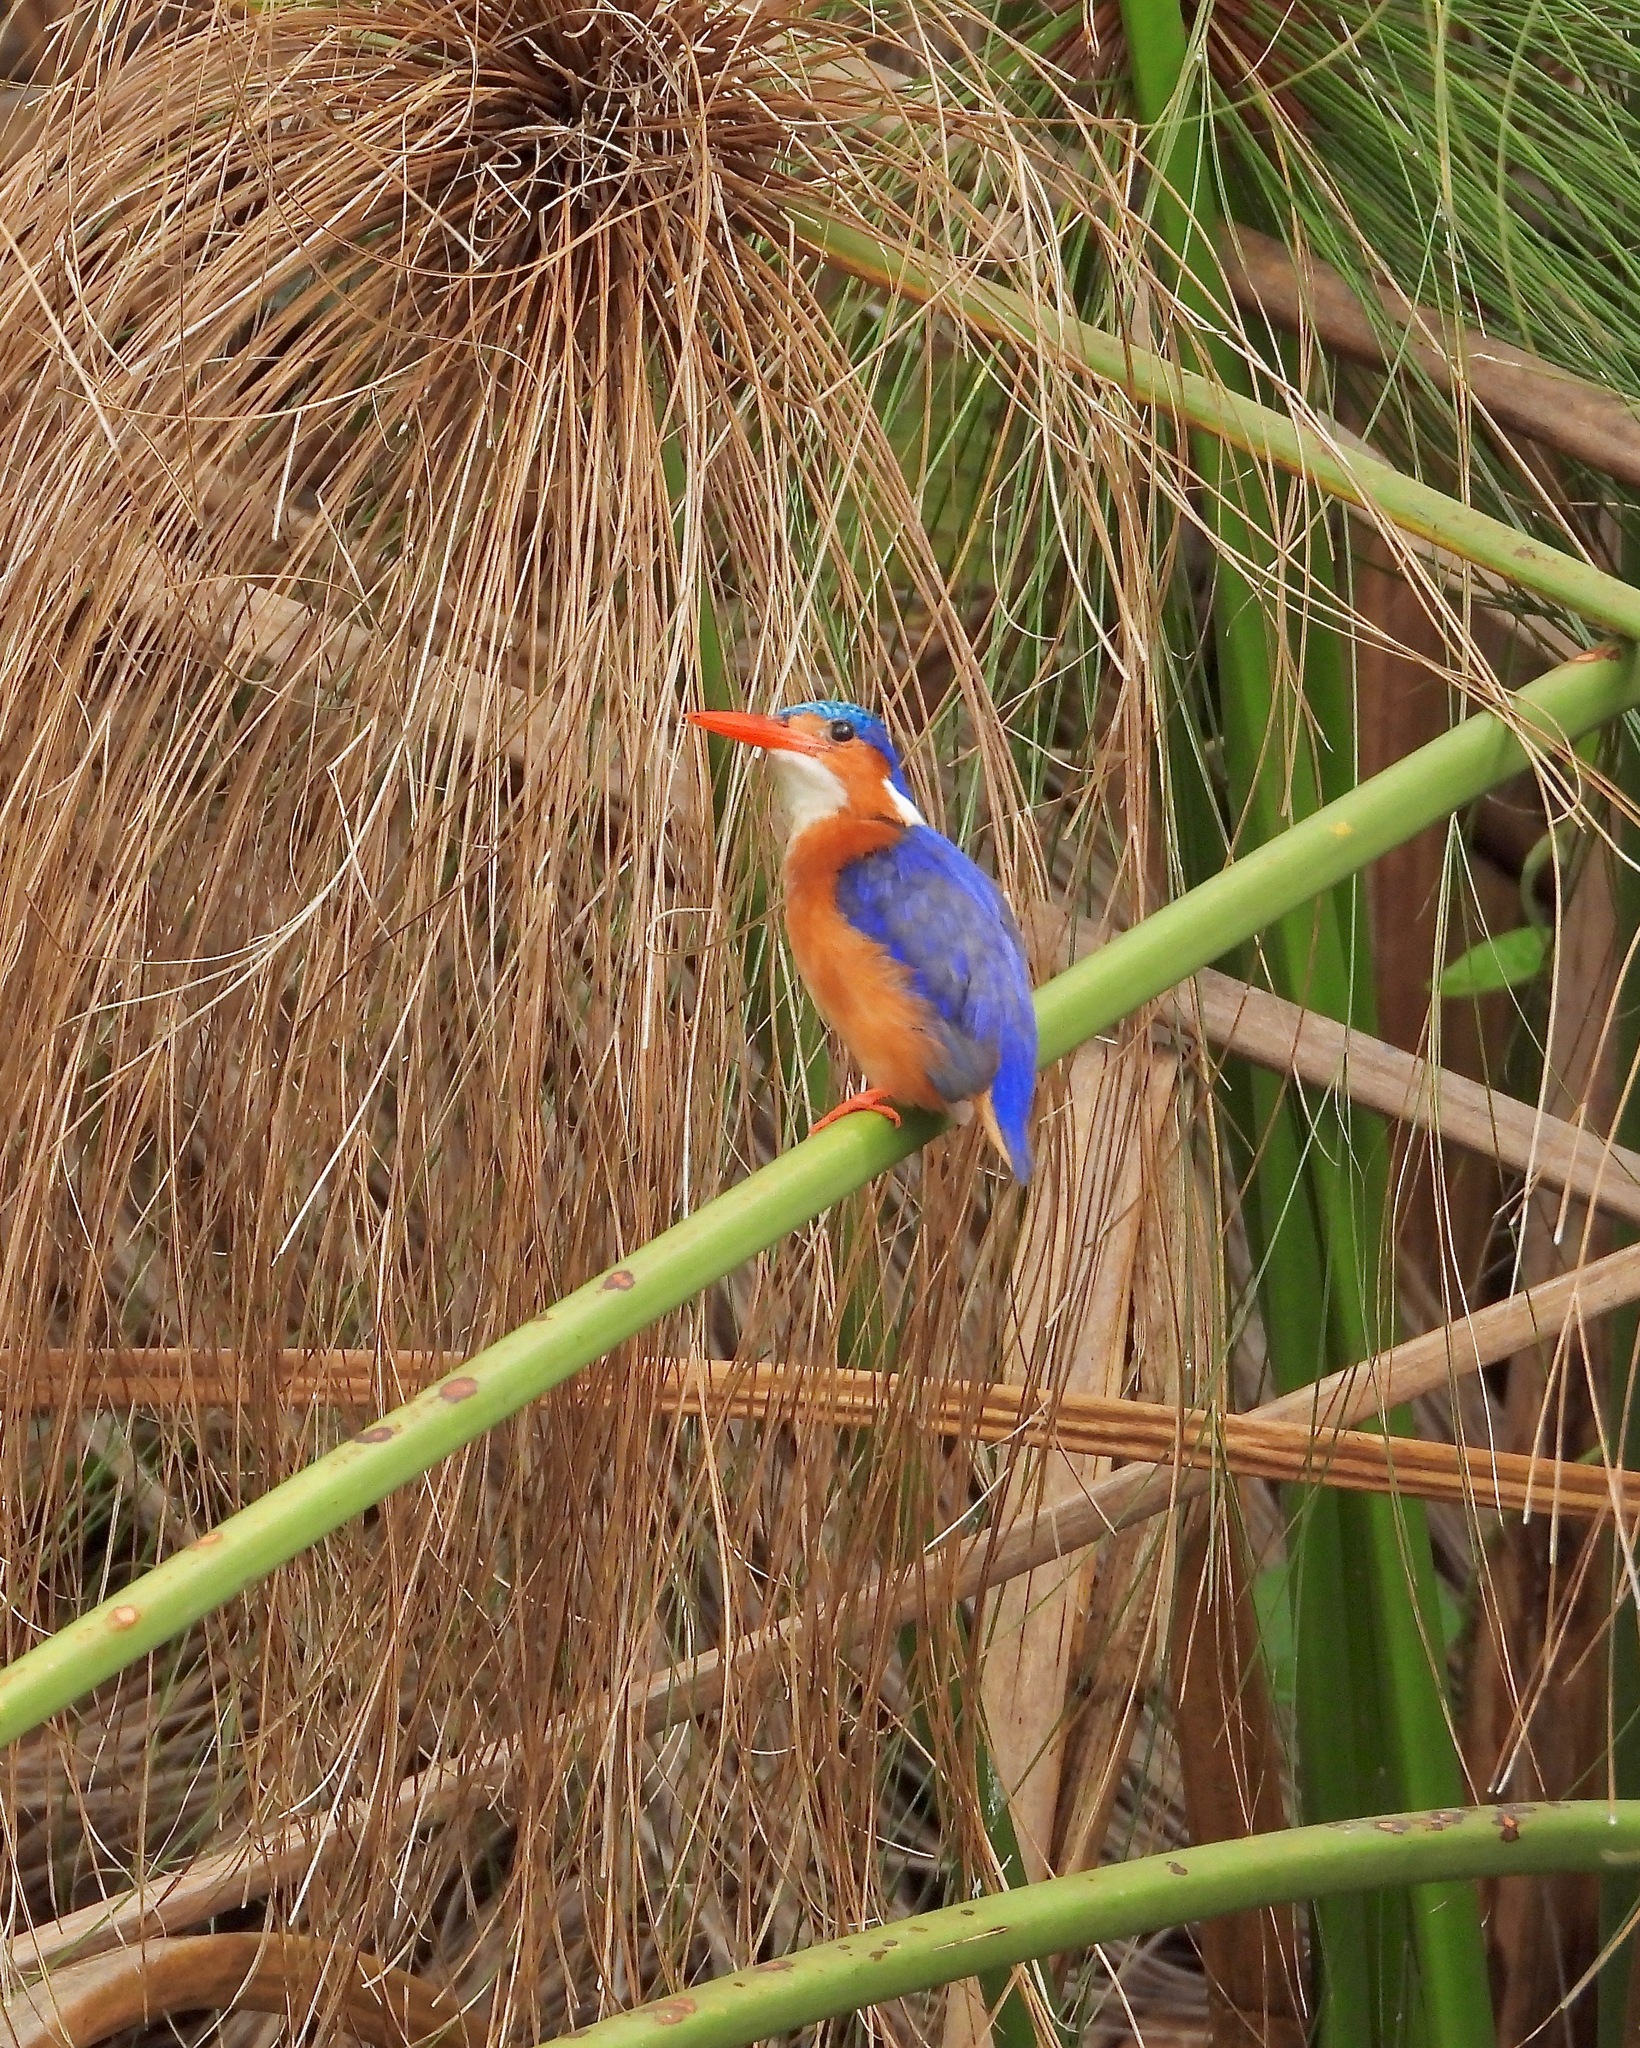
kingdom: Animalia
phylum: Chordata
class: Aves
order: Coraciiformes
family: Alcedinidae
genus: Corythornis
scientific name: Corythornis cristatus
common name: Malachite kingfisher
